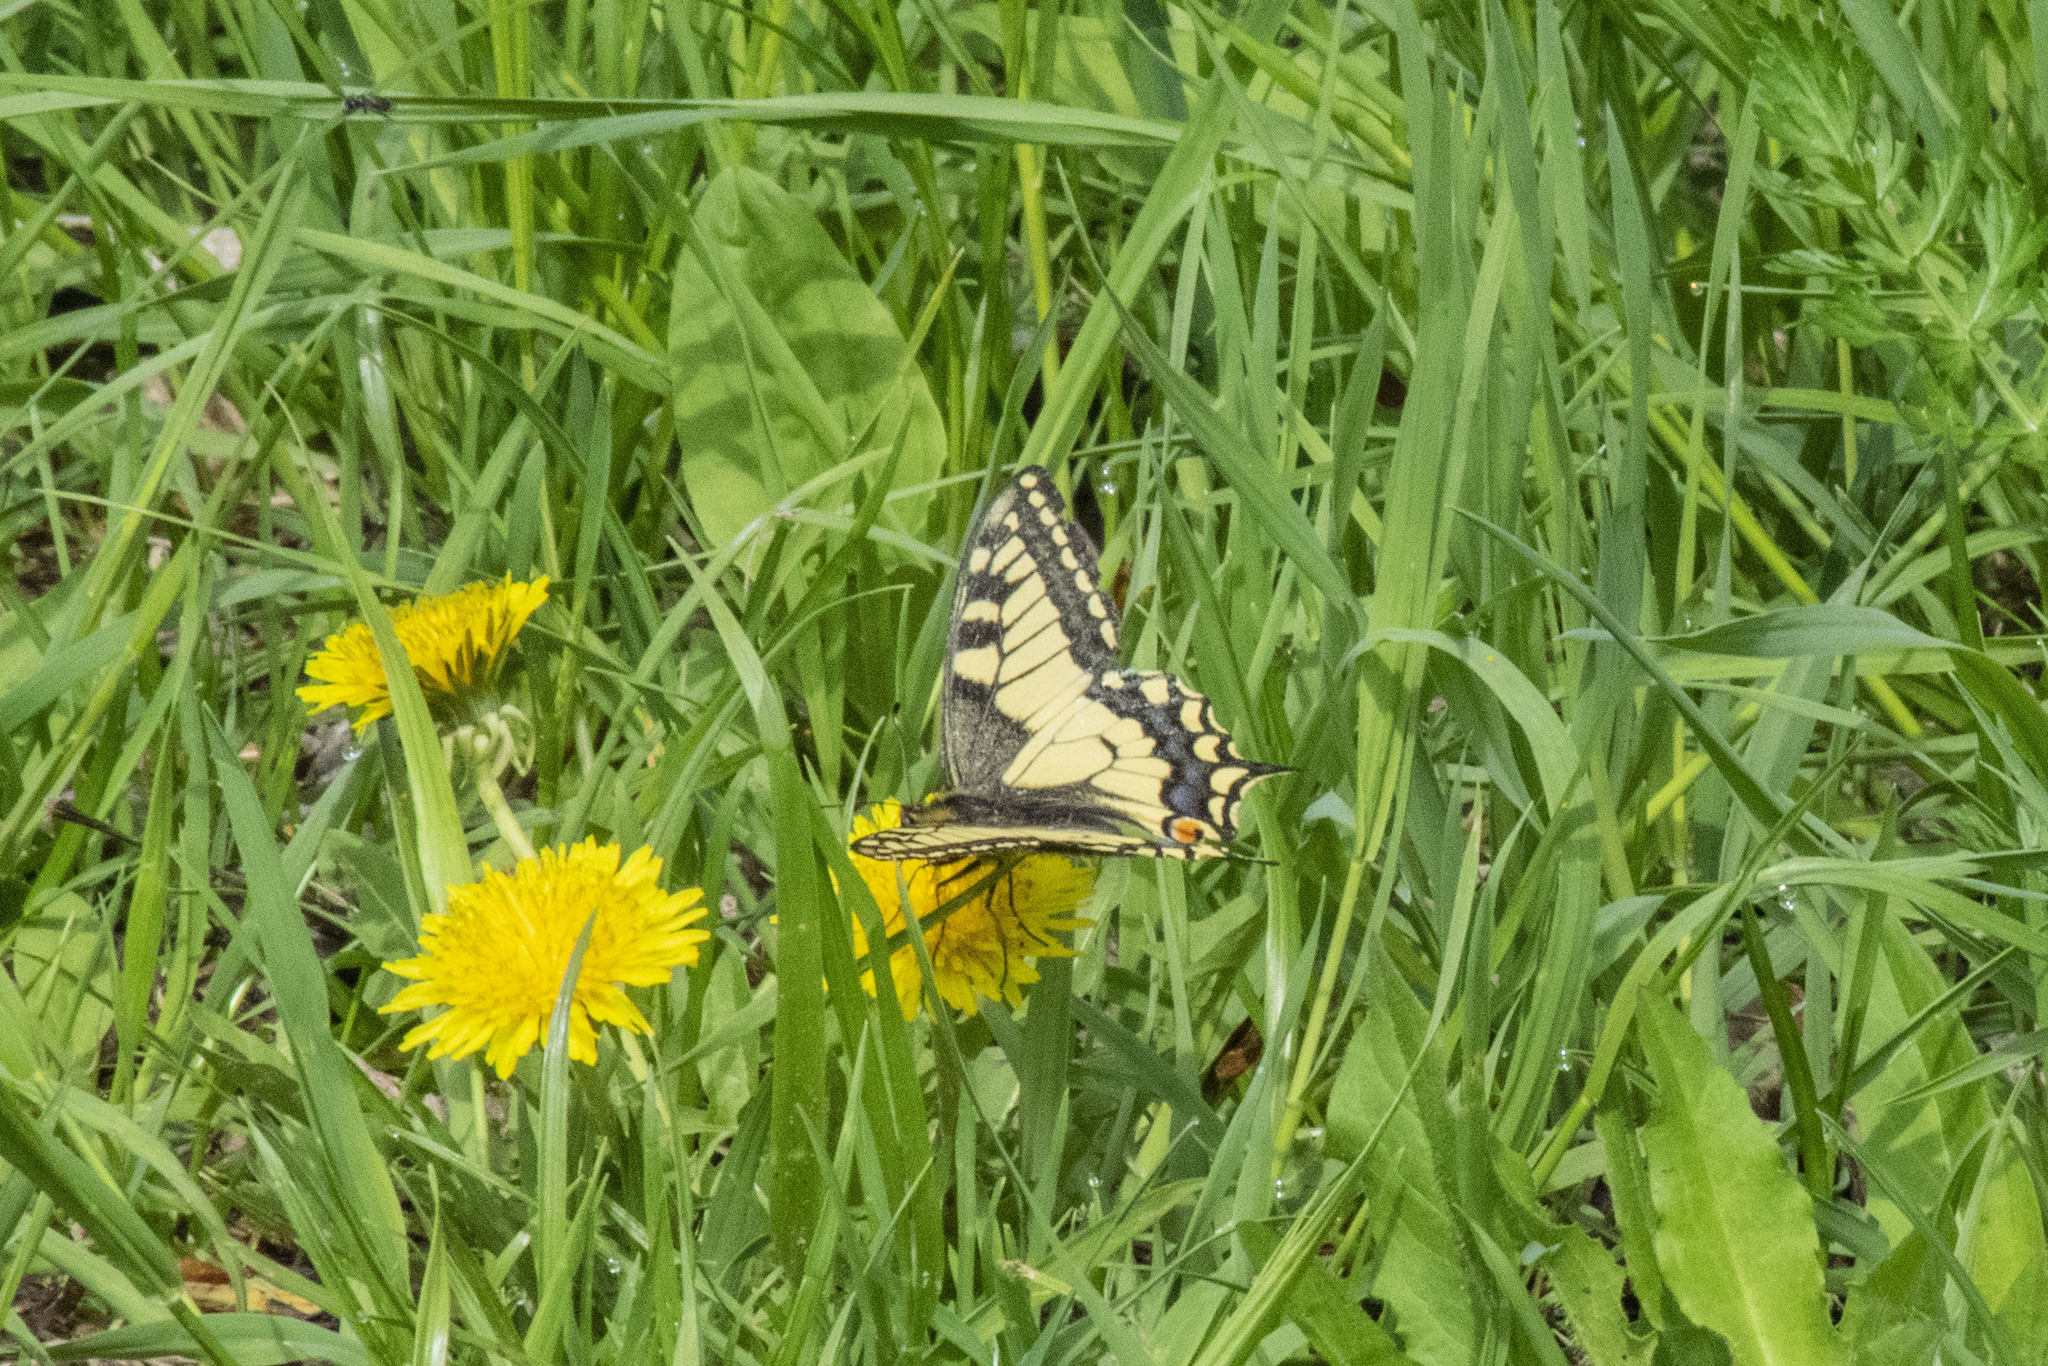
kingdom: Animalia
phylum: Arthropoda
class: Insecta
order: Lepidoptera
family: Papilionidae
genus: Papilio
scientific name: Papilio machaon
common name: Swallowtail
